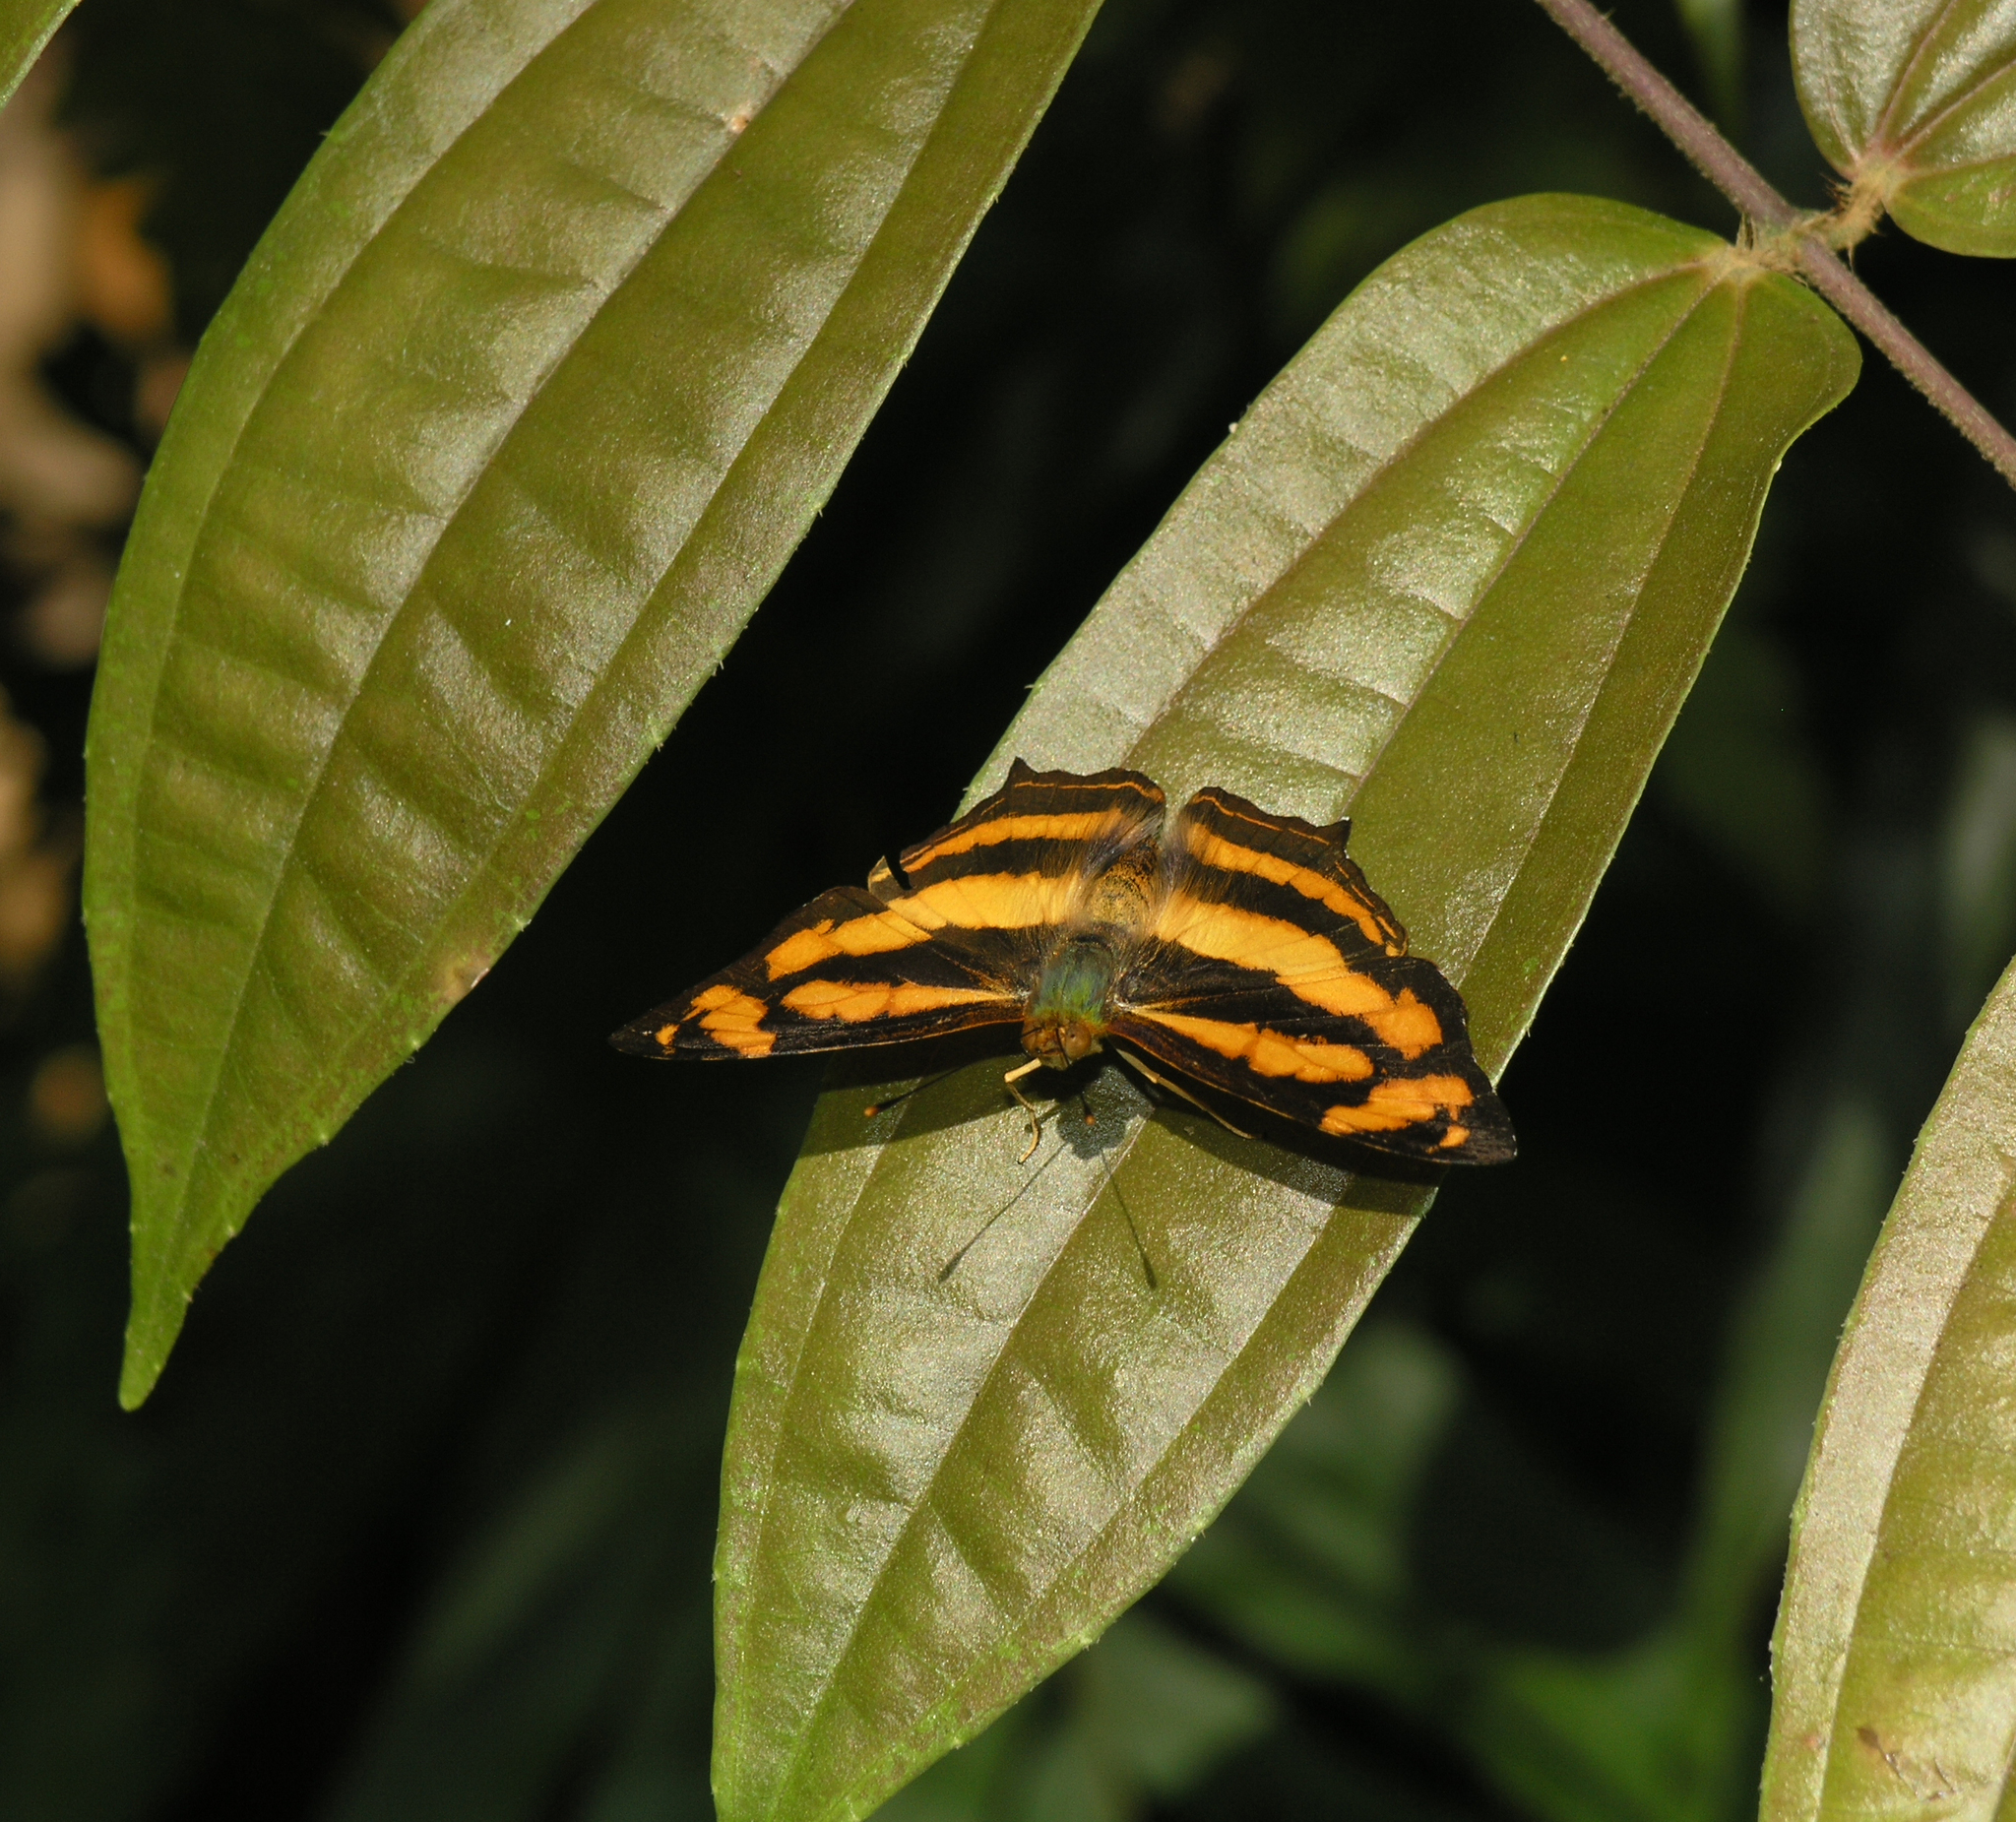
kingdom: Animalia
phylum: Arthropoda
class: Insecta
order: Lepidoptera
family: Nymphalidae
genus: Symbrenthia
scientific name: Symbrenthia hypselis
